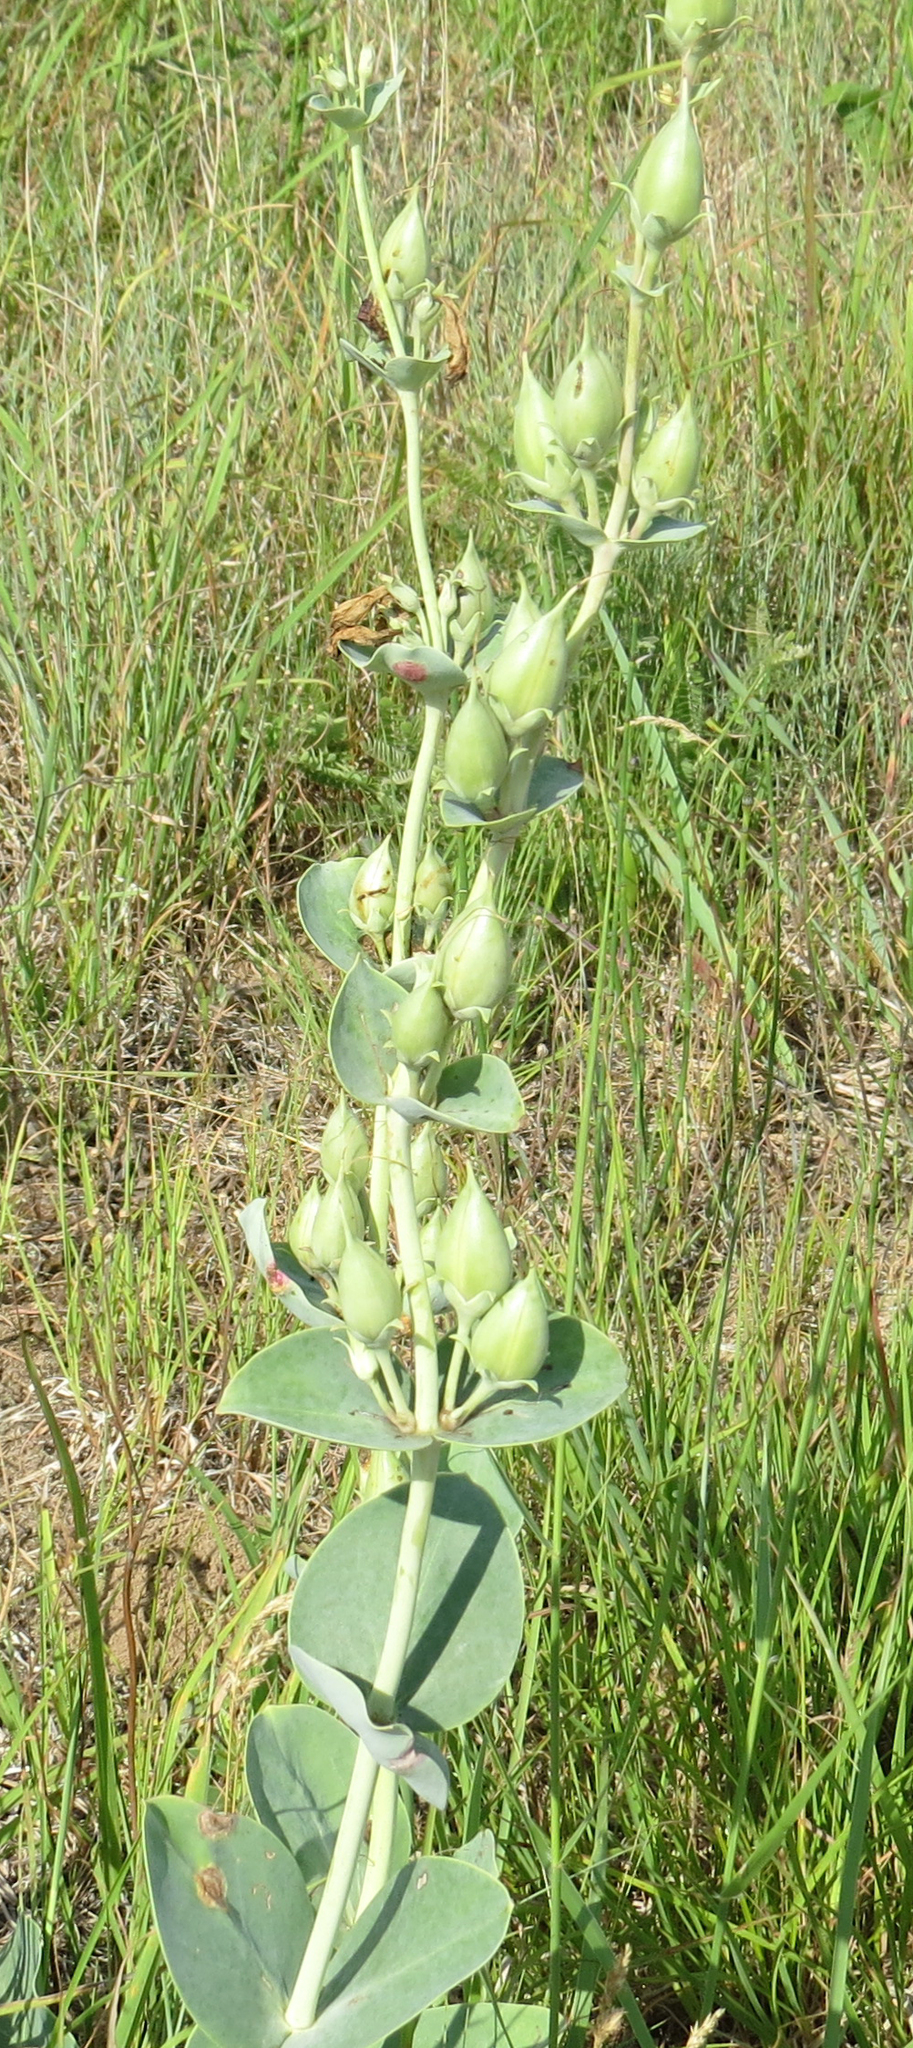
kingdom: Plantae
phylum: Tracheophyta
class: Magnoliopsida
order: Lamiales
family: Plantaginaceae
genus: Penstemon
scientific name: Penstemon
